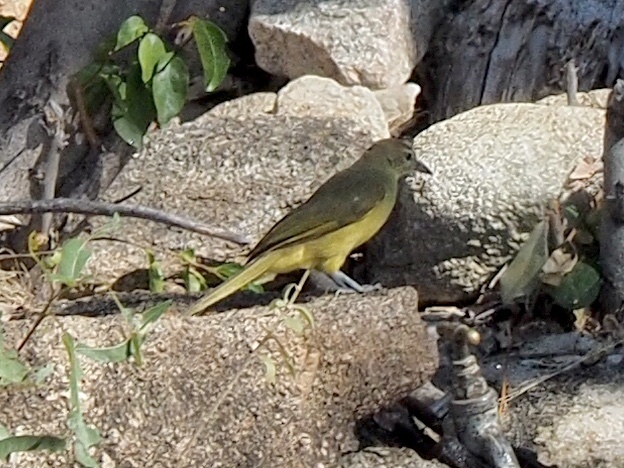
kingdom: Animalia
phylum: Chordata
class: Aves
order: Passeriformes
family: Pycnonotidae
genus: Chlorocichla
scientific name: Chlorocichla flaviventris
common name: Yellow-bellied greenbul
